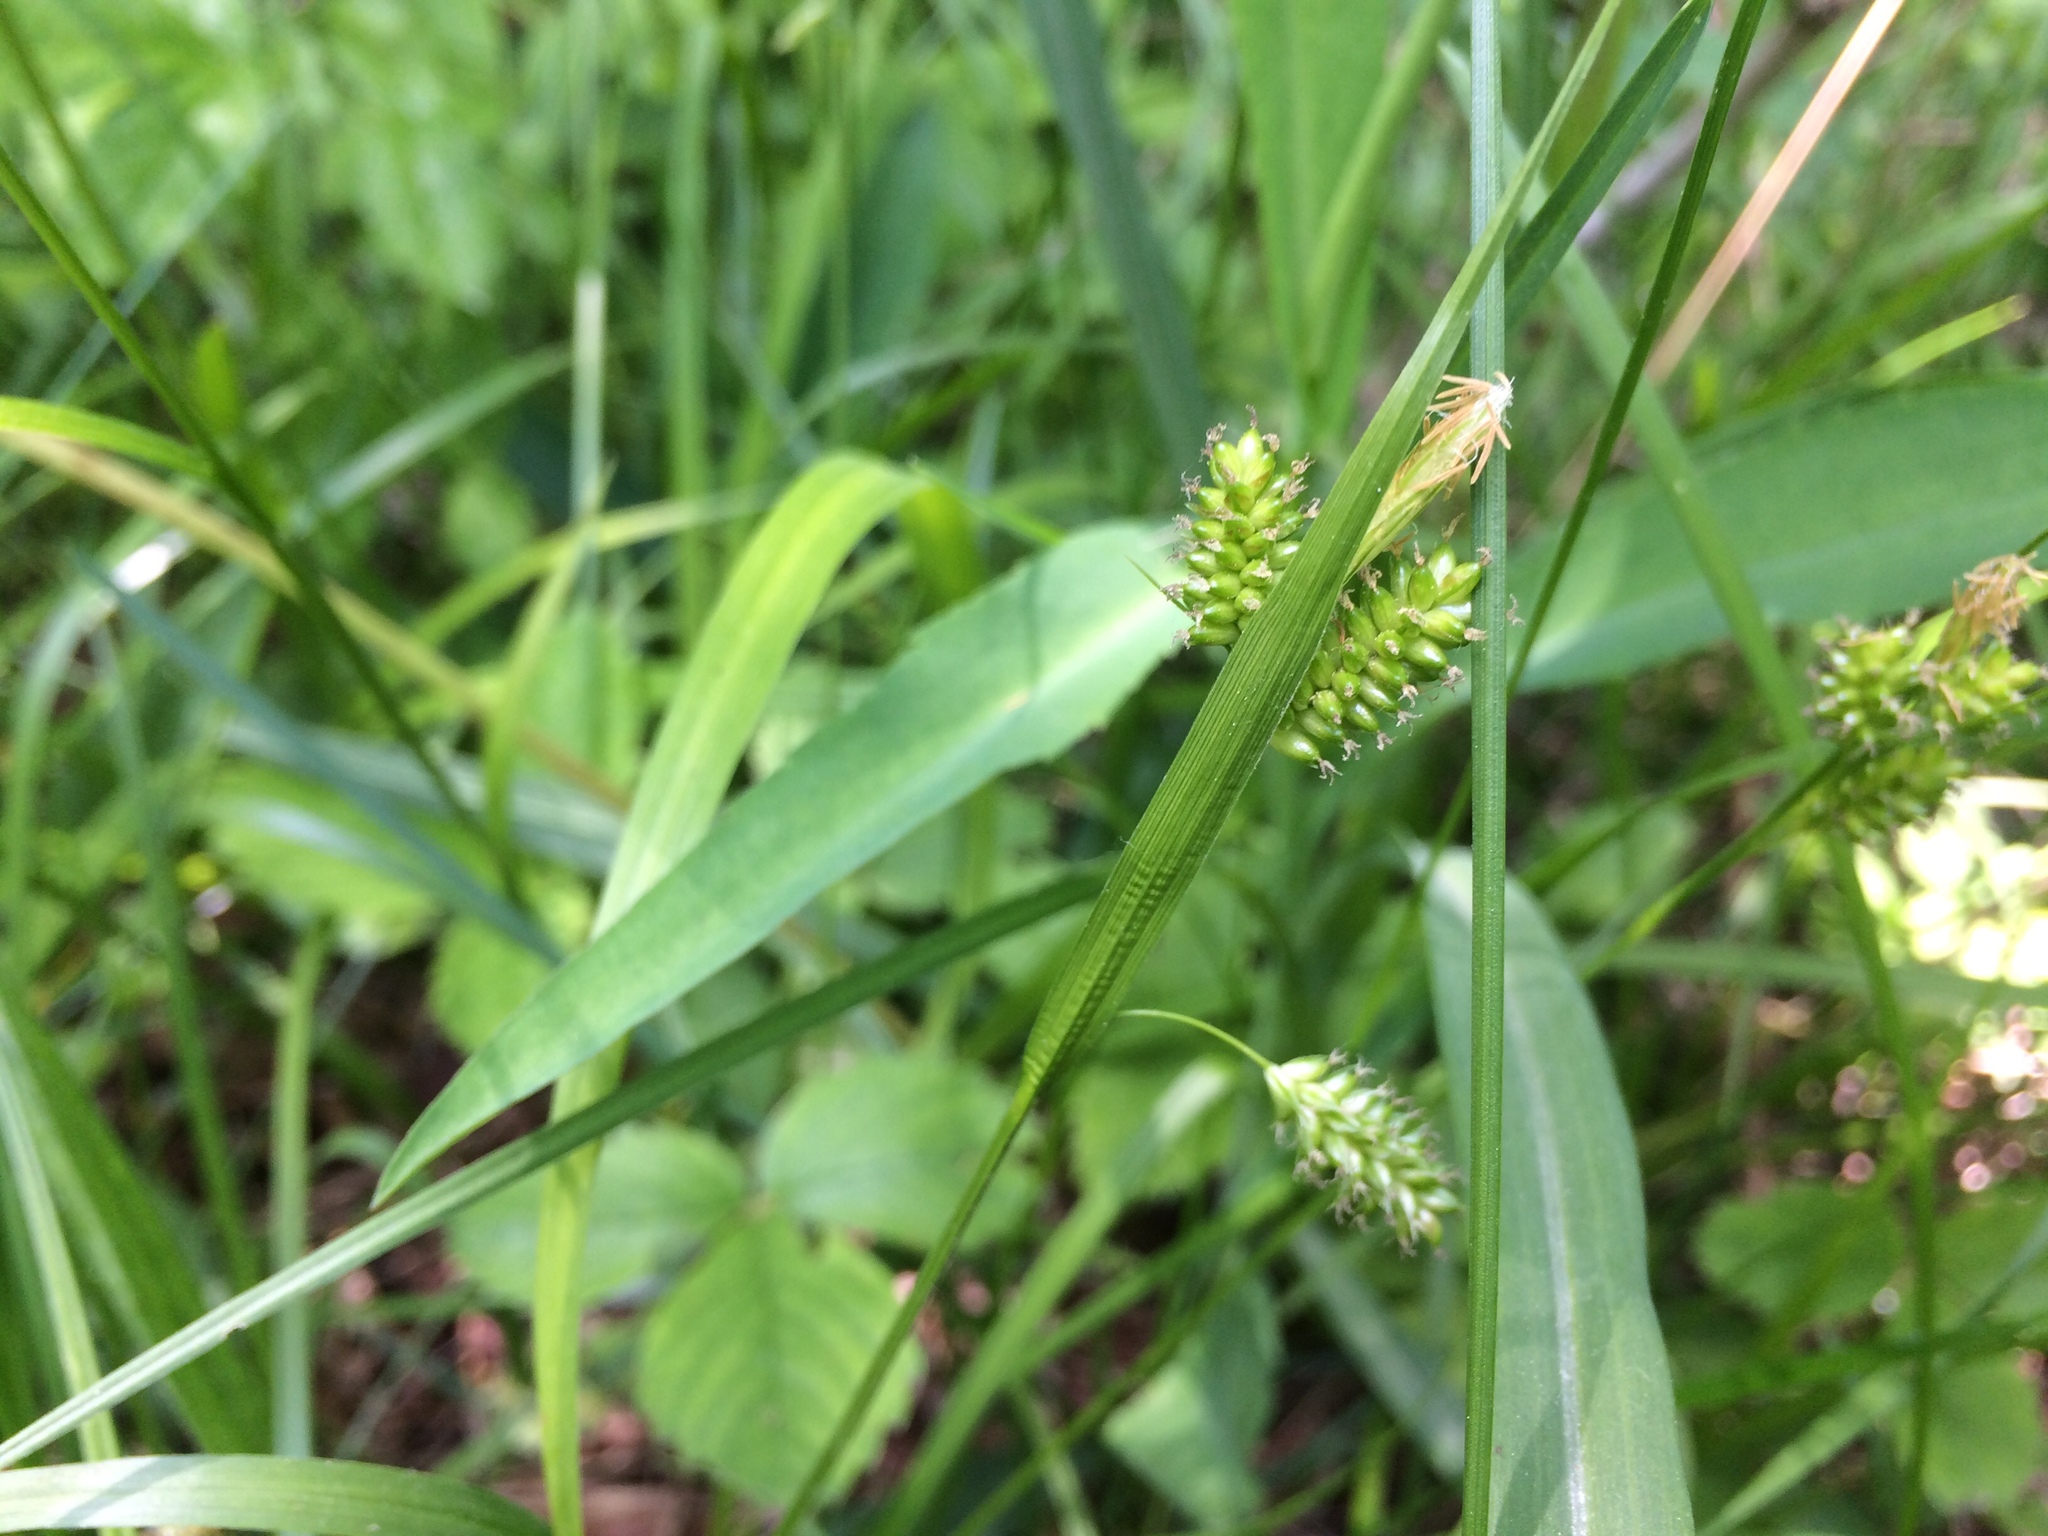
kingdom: Plantae
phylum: Tracheophyta
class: Liliopsida
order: Poales
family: Cyperaceae
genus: Carex
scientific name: Carex pallescens
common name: Pale sedge
